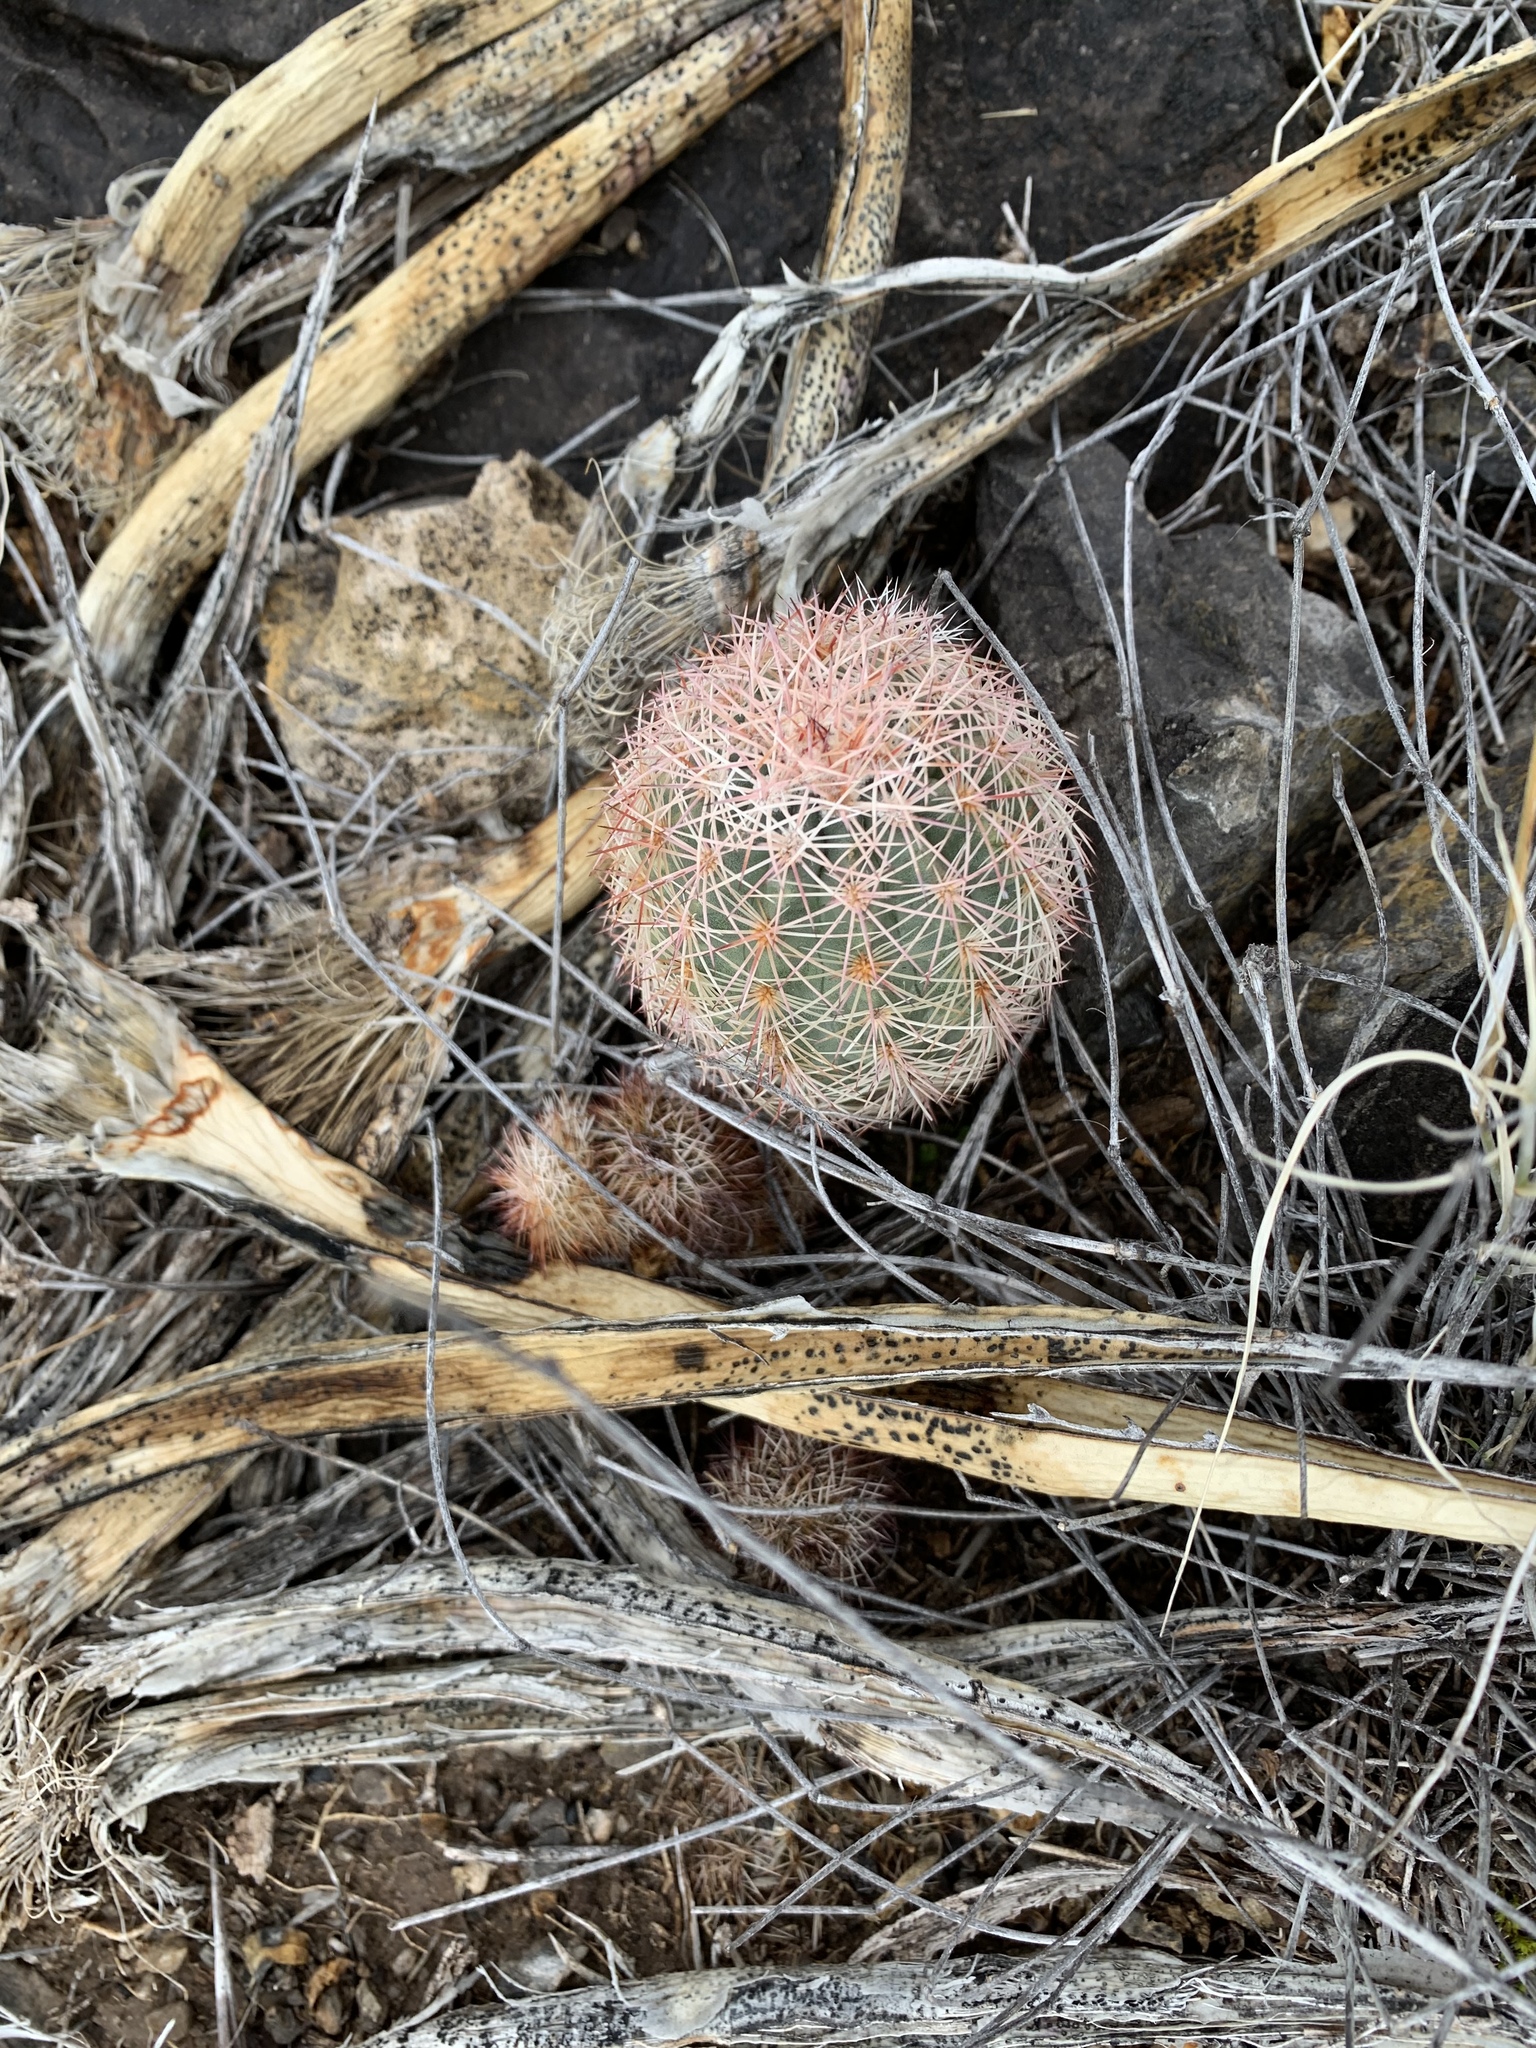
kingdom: Plantae
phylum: Tracheophyta
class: Magnoliopsida
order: Caryophyllales
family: Cactaceae
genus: Echinocereus
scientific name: Echinocereus dasyacanthus
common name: Spiny hedgehog cactus
